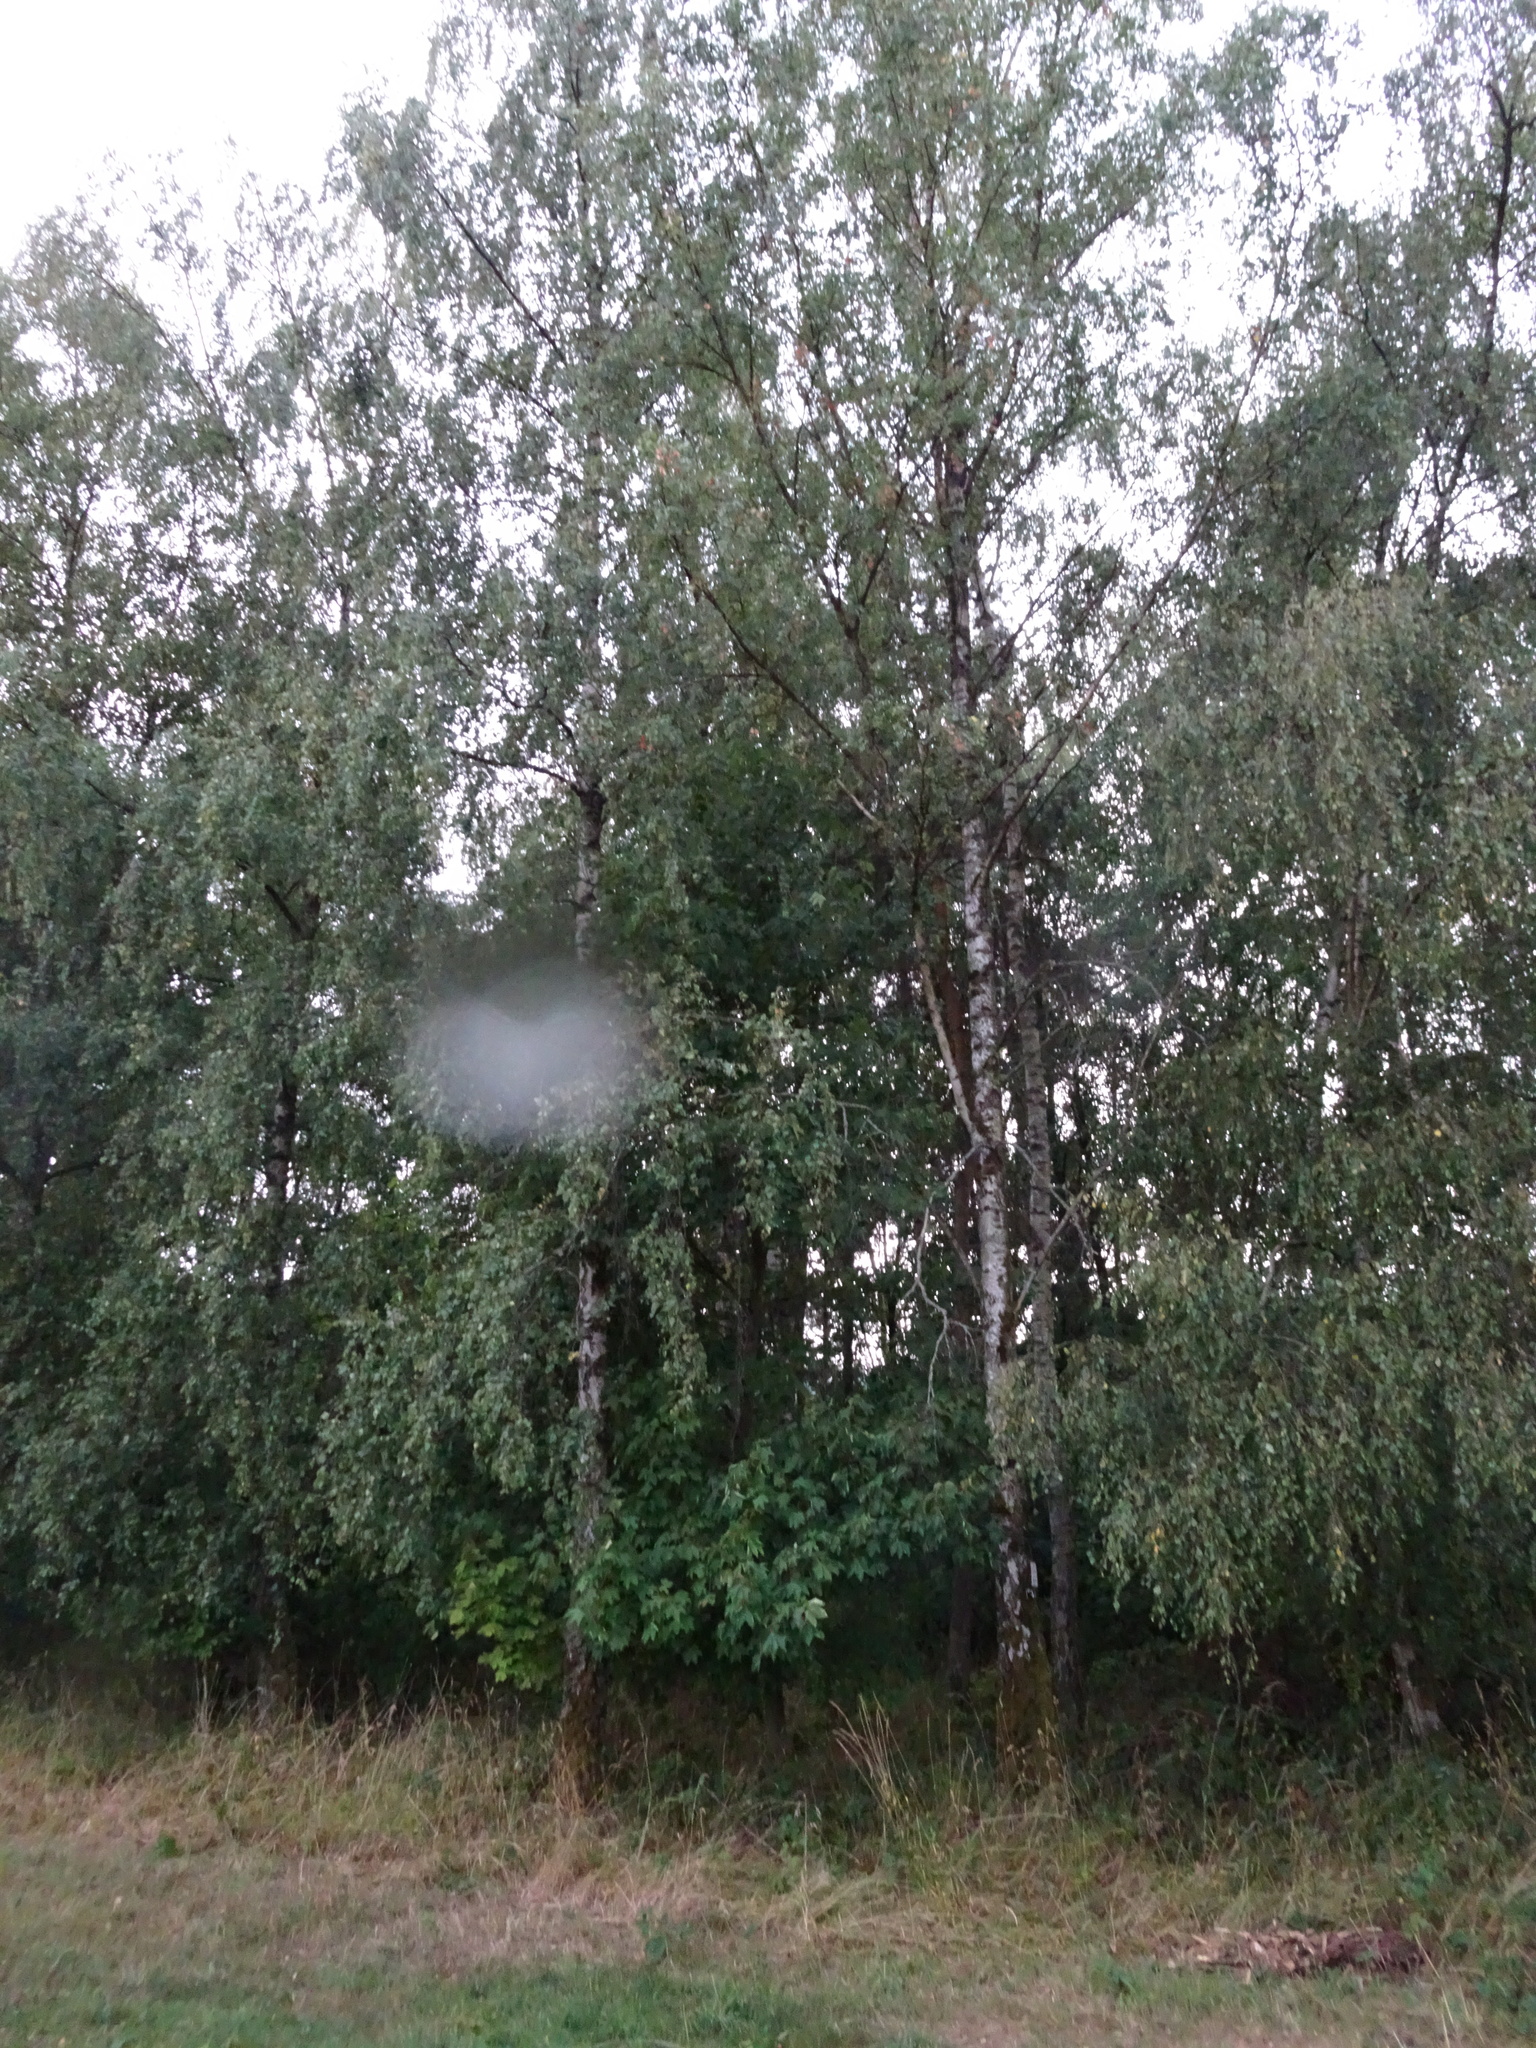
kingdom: Plantae
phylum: Tracheophyta
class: Magnoliopsida
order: Fagales
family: Betulaceae
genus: Betula
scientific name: Betula pendula
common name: Silver birch
